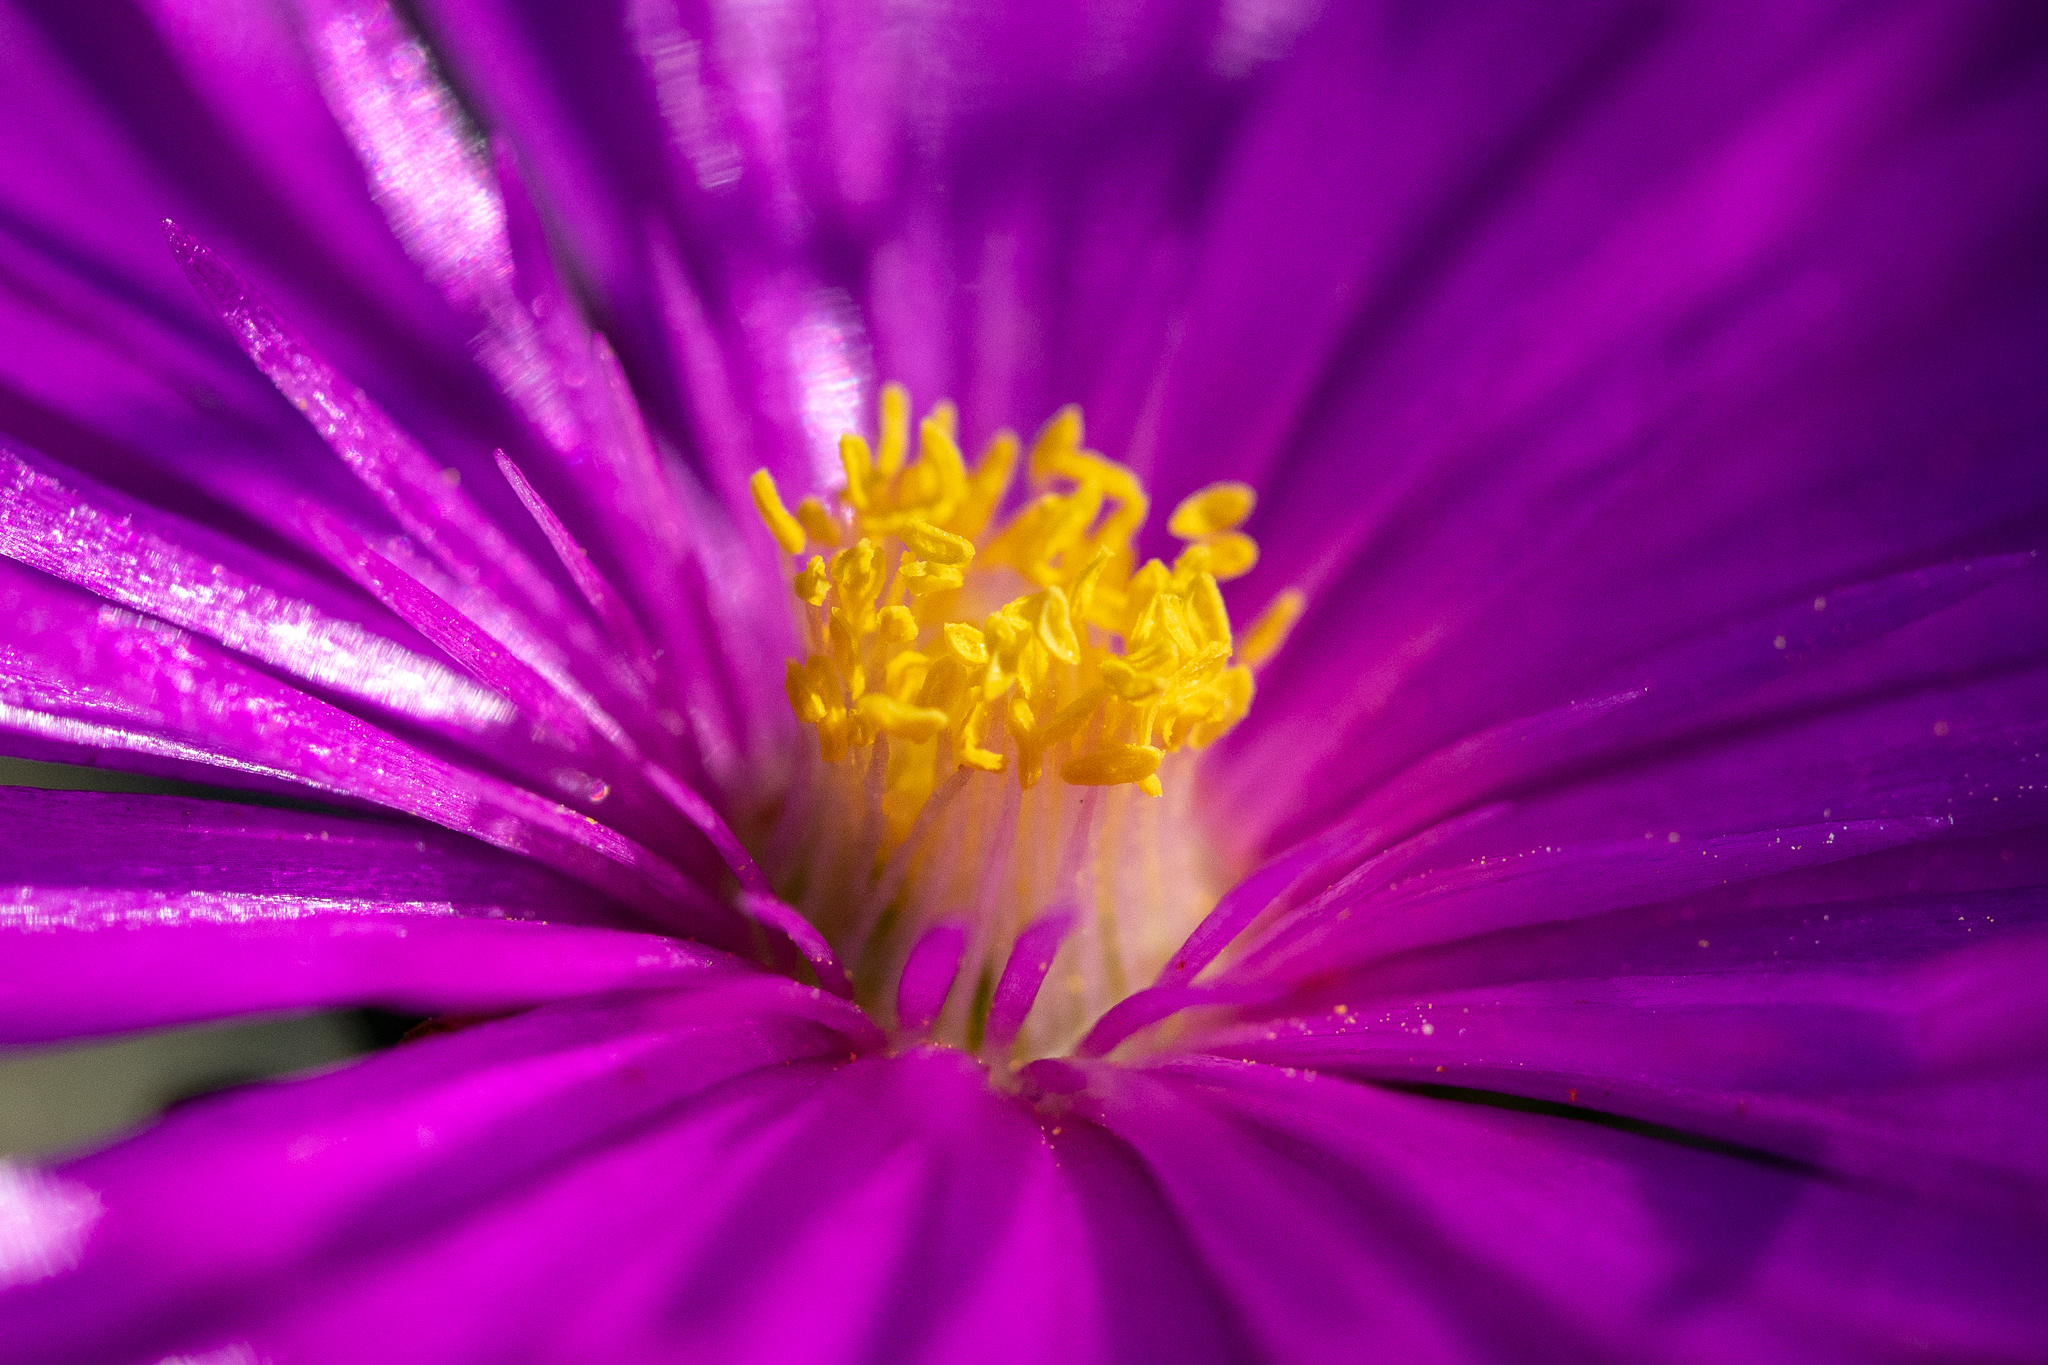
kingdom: Plantae
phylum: Tracheophyta
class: Magnoliopsida
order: Caryophyllales
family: Aizoaceae
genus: Lampranthus
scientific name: Lampranthus ceriseus
